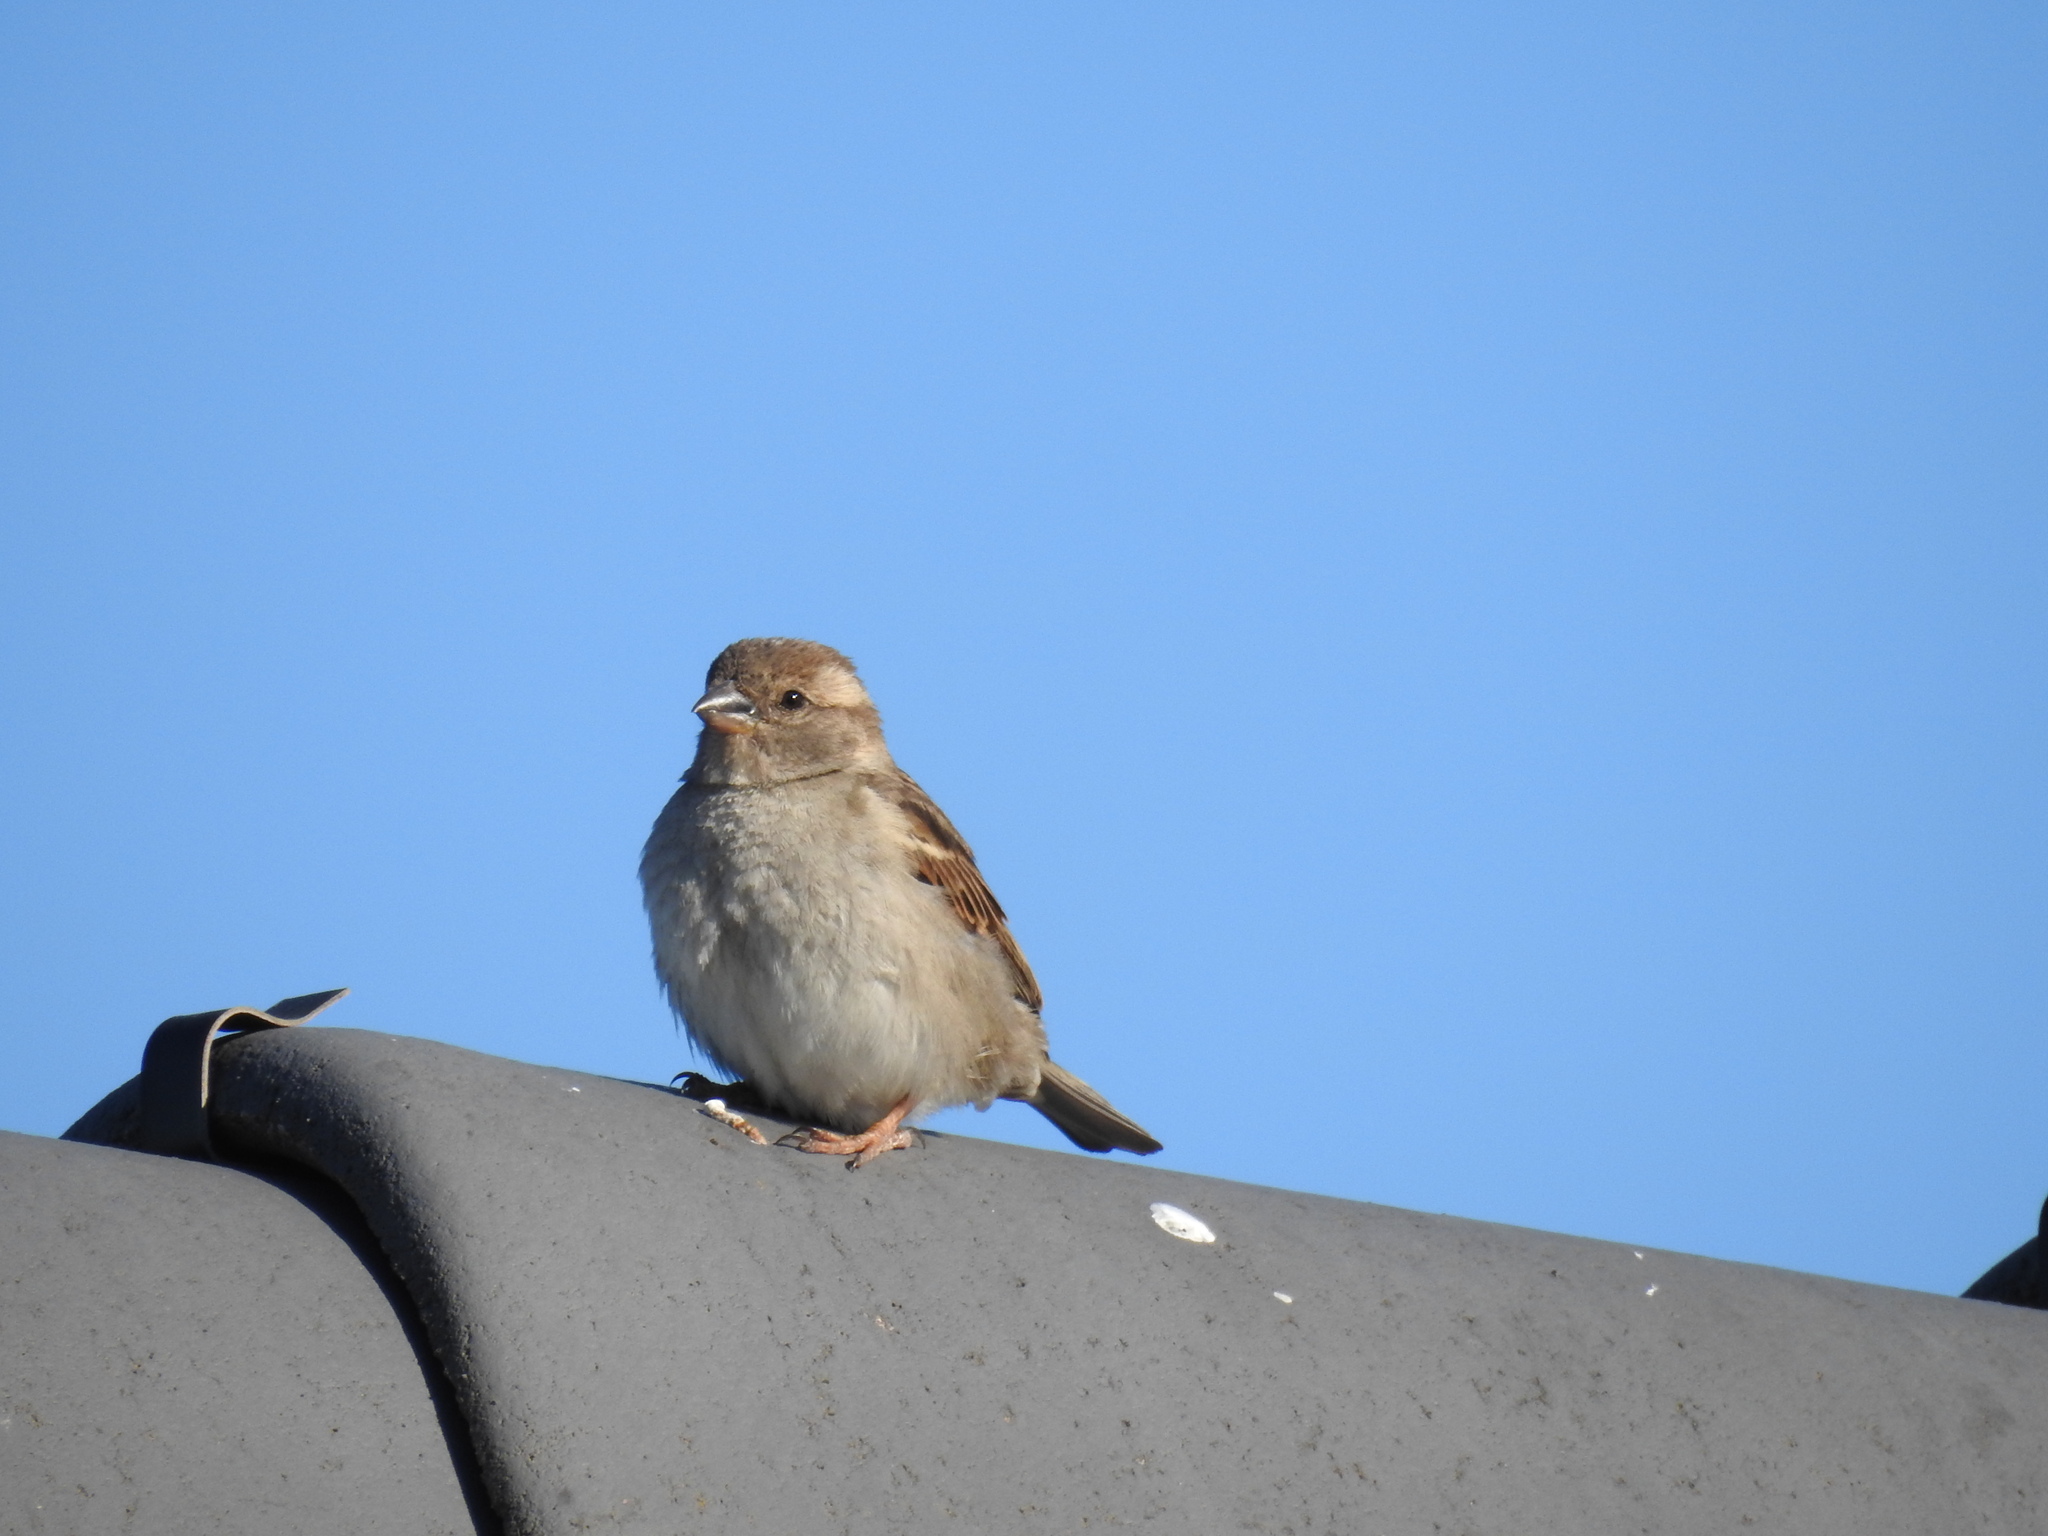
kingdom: Animalia
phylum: Chordata
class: Aves
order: Passeriformes
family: Passeridae
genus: Passer
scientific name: Passer domesticus
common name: House sparrow
